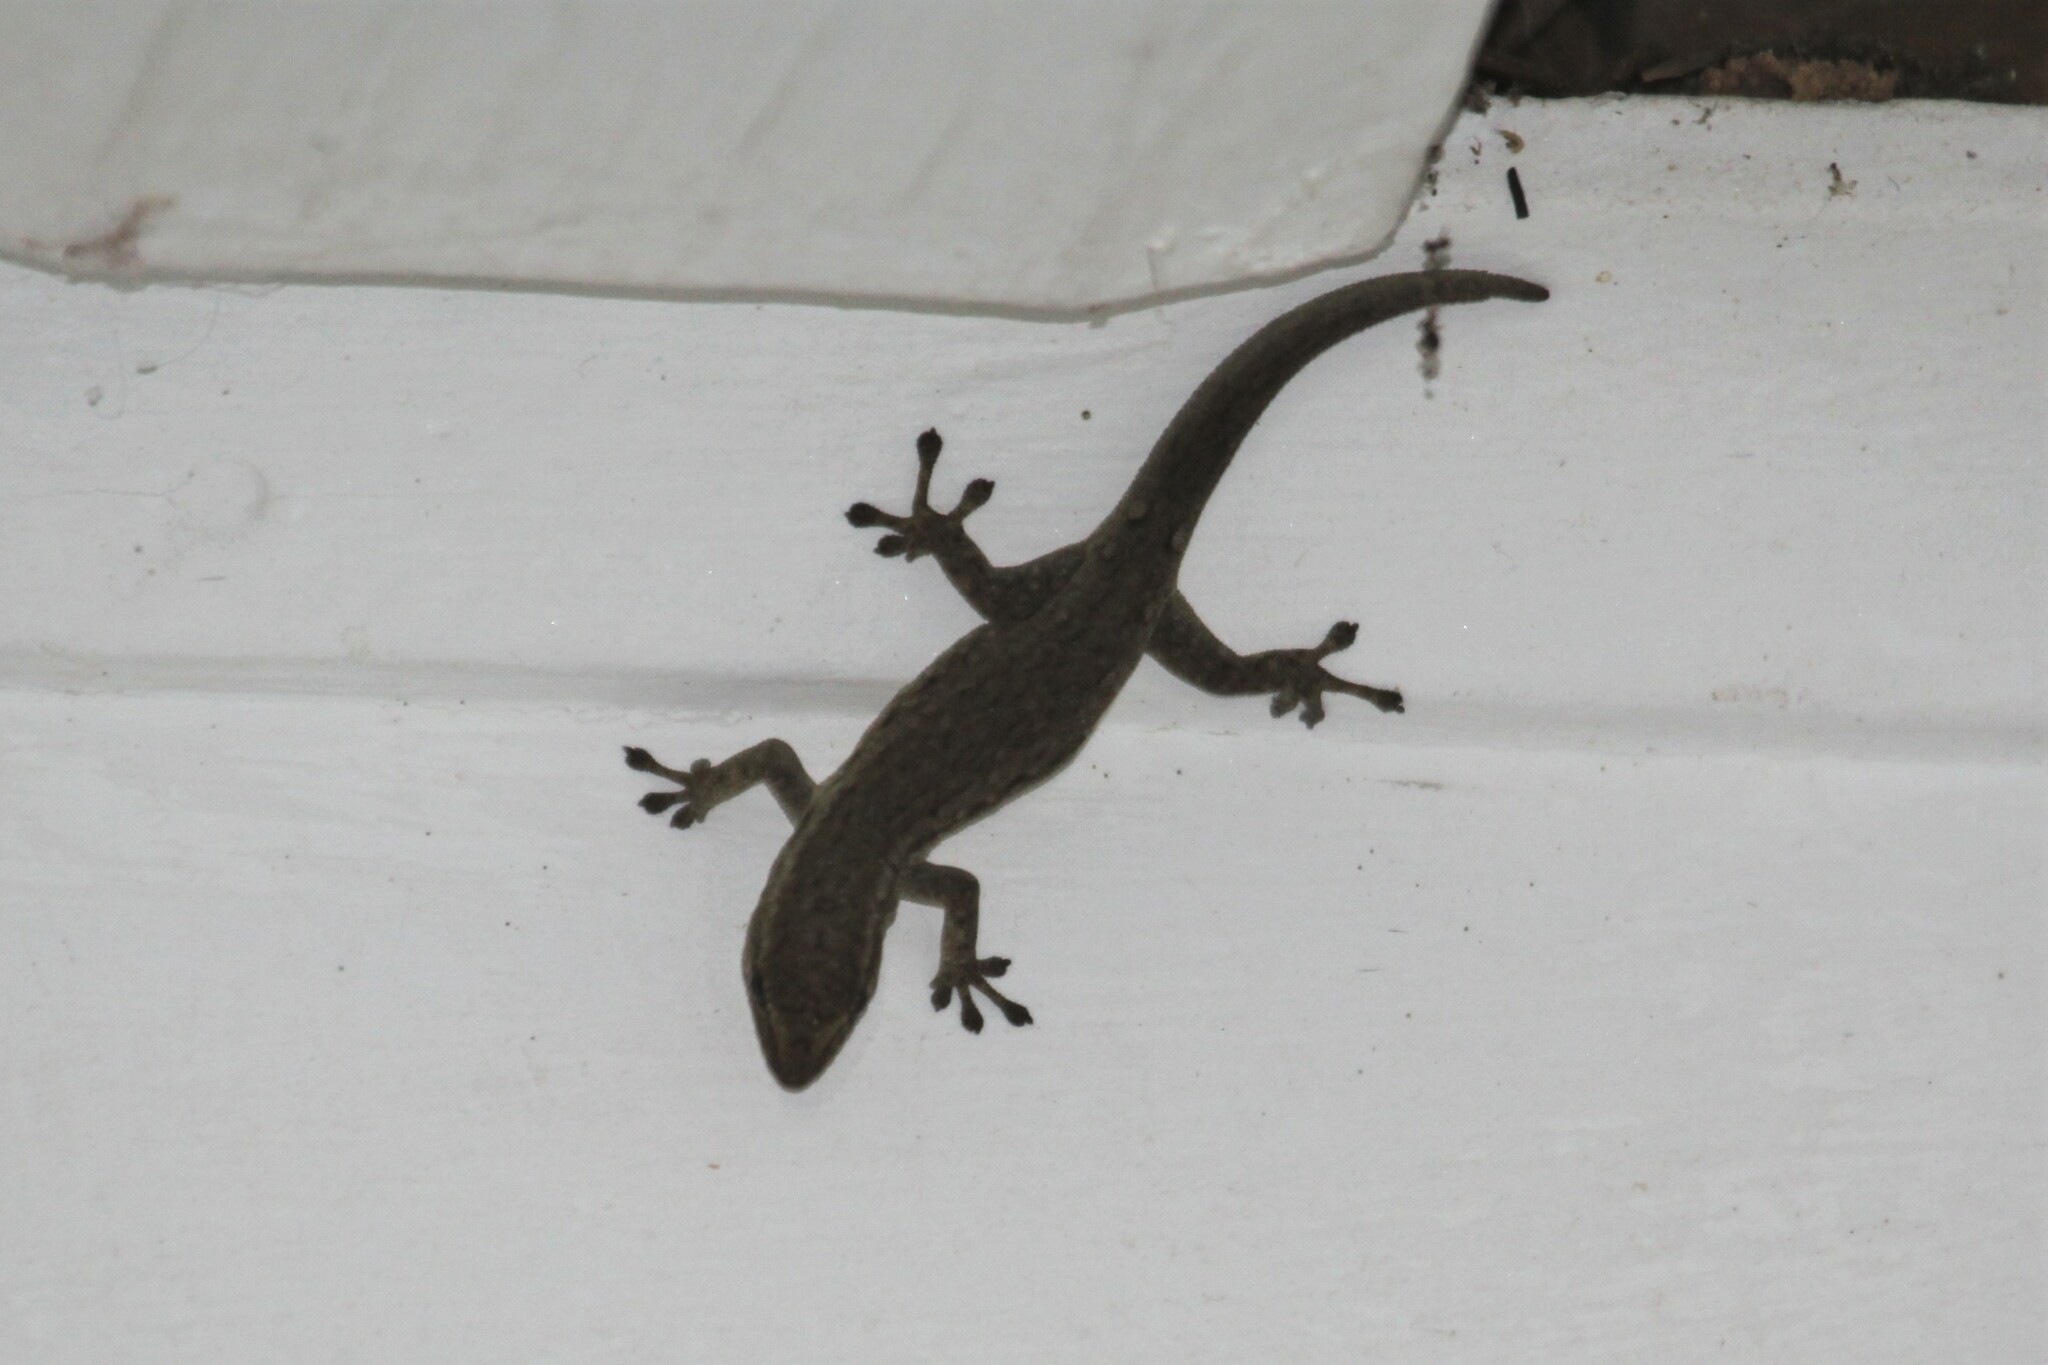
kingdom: Animalia
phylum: Chordata
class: Squamata
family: Gekkonidae
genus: Lygodactylus
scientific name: Lygodactylus capensis
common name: Cape dwarf gecko
